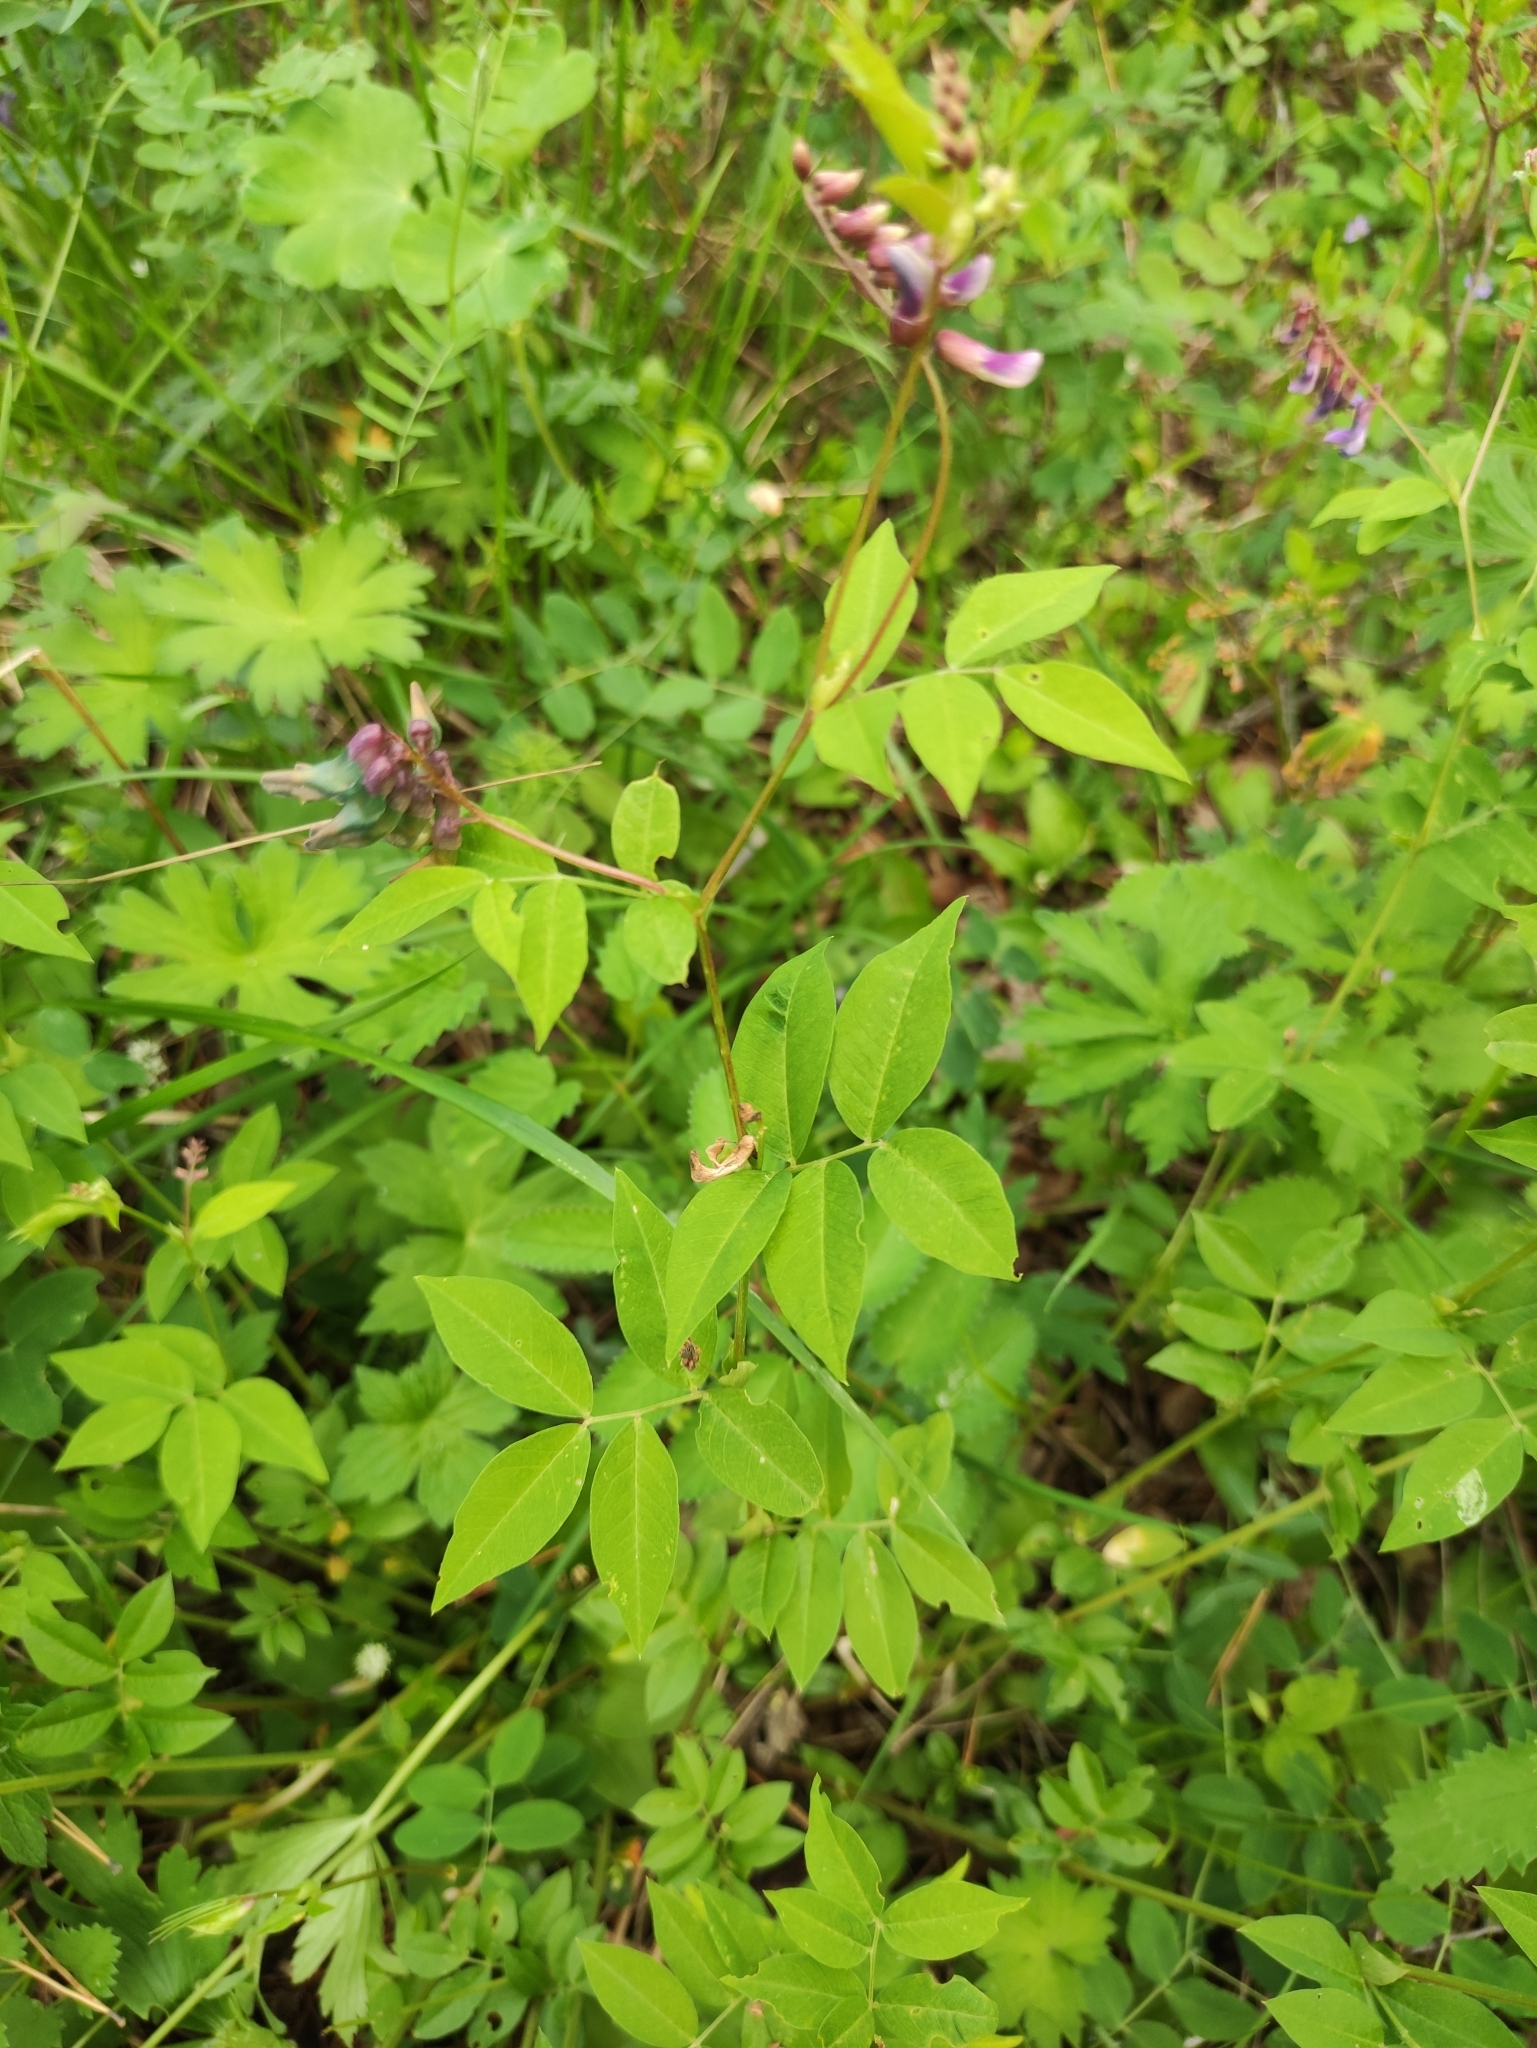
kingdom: Plantae
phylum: Tracheophyta
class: Magnoliopsida
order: Fabales
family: Fabaceae
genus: Vicia
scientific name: Vicia ramuliflora
